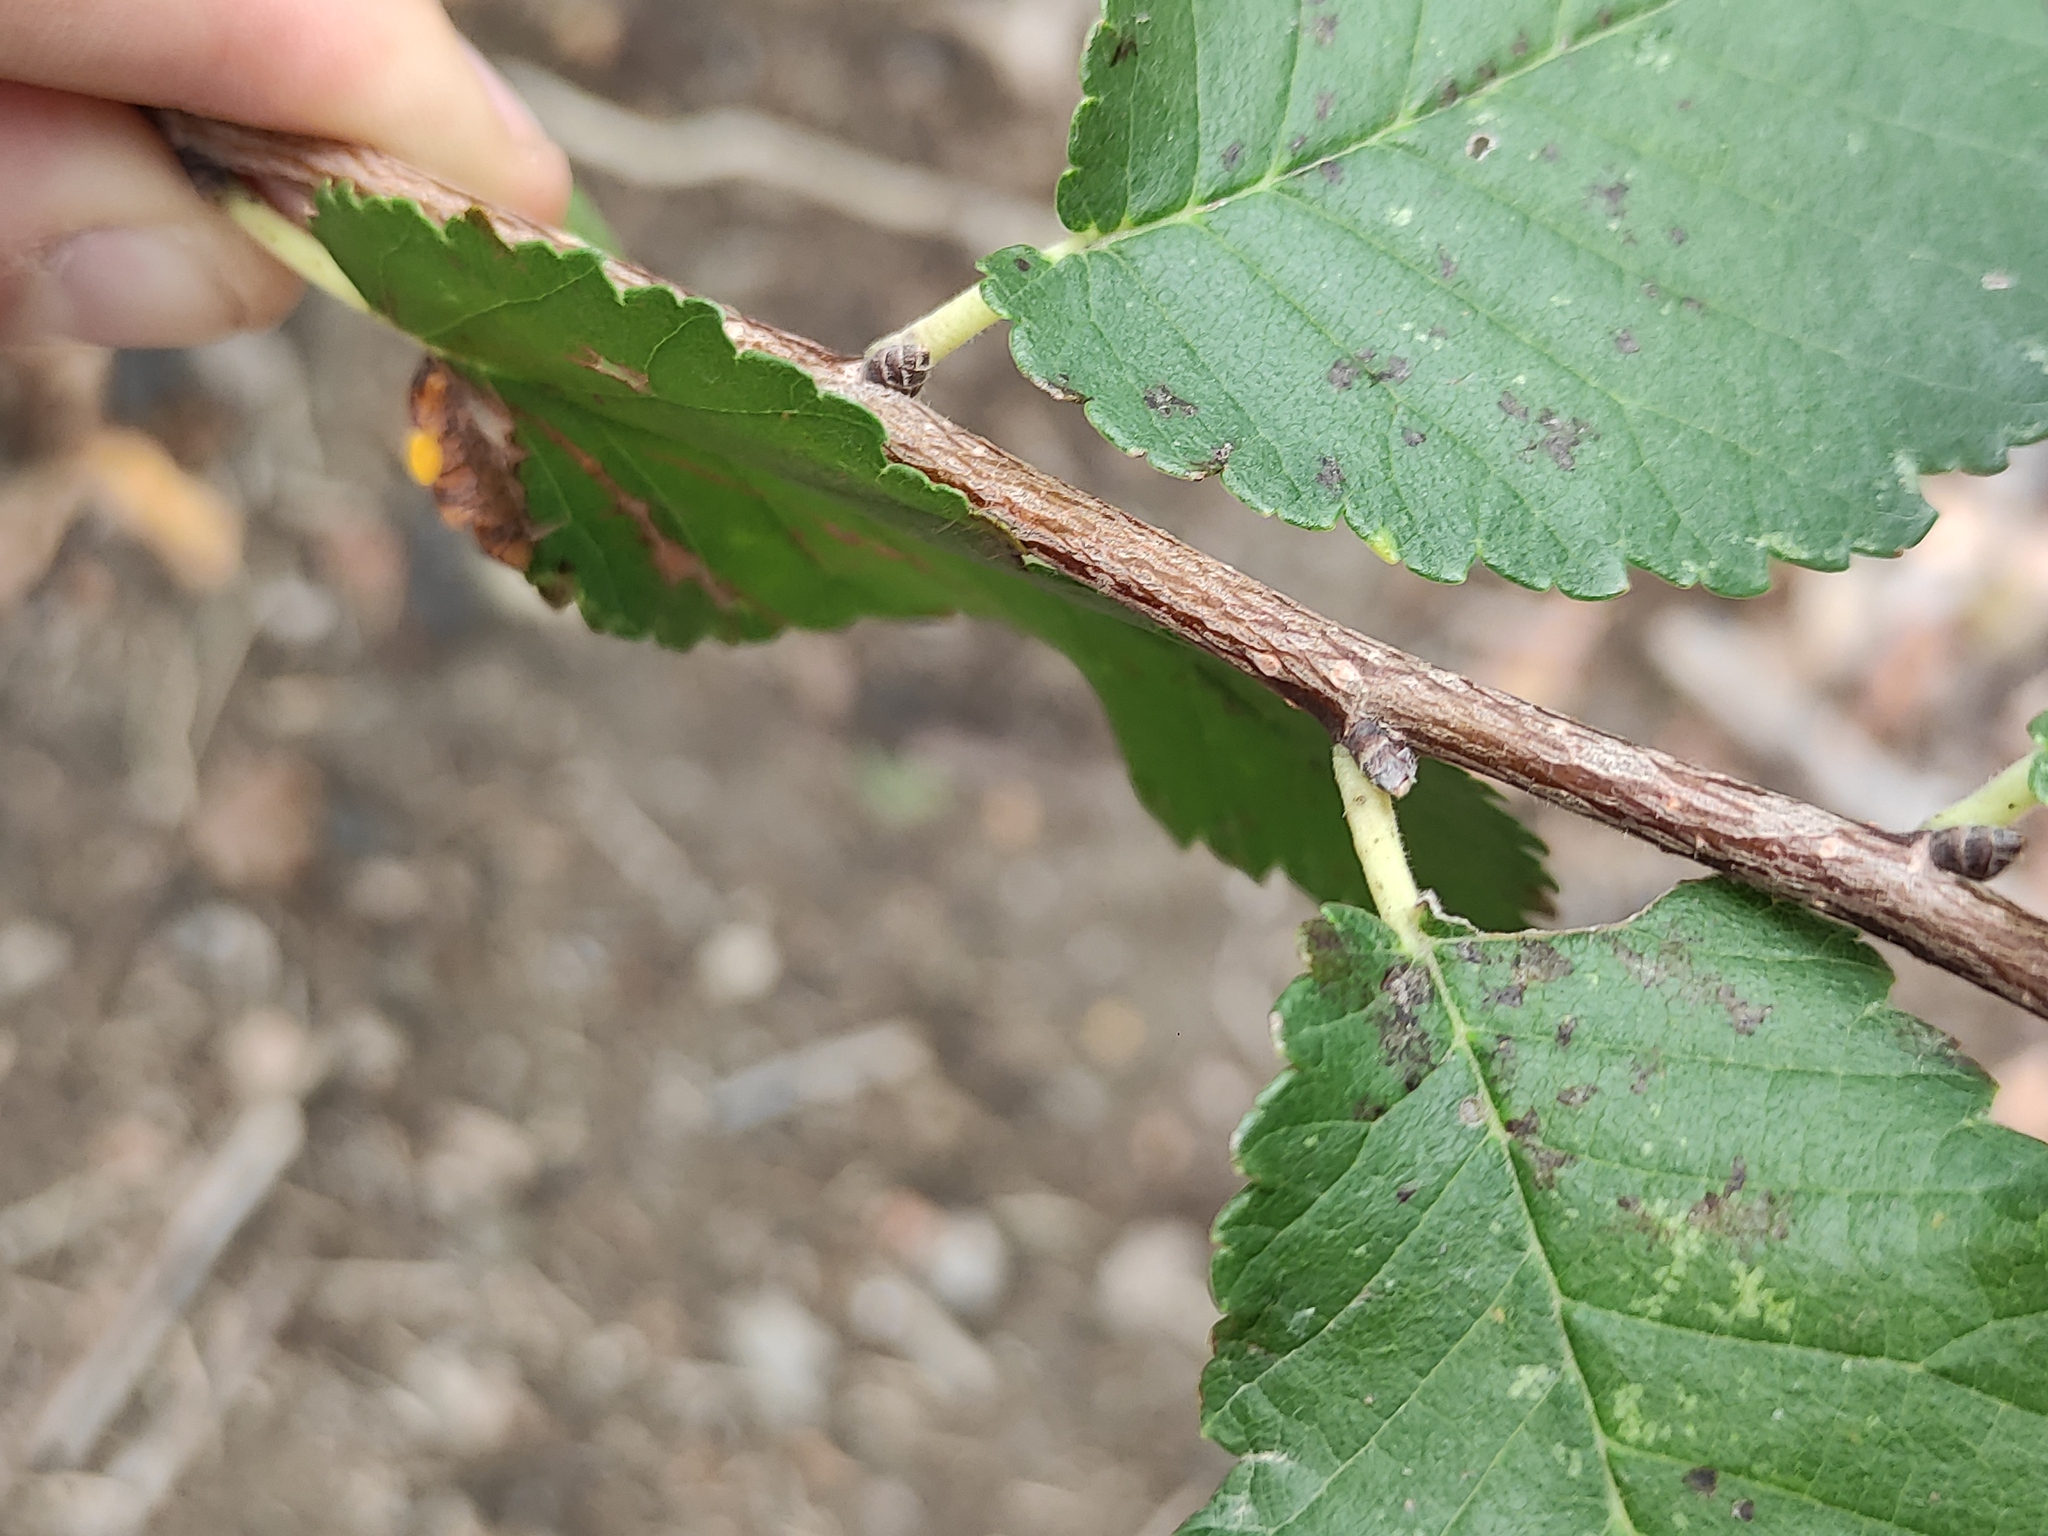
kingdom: Plantae
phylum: Tracheophyta
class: Magnoliopsida
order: Rosales
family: Ulmaceae
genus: Ulmus
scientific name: Ulmus minor
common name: Small-leaved elm
